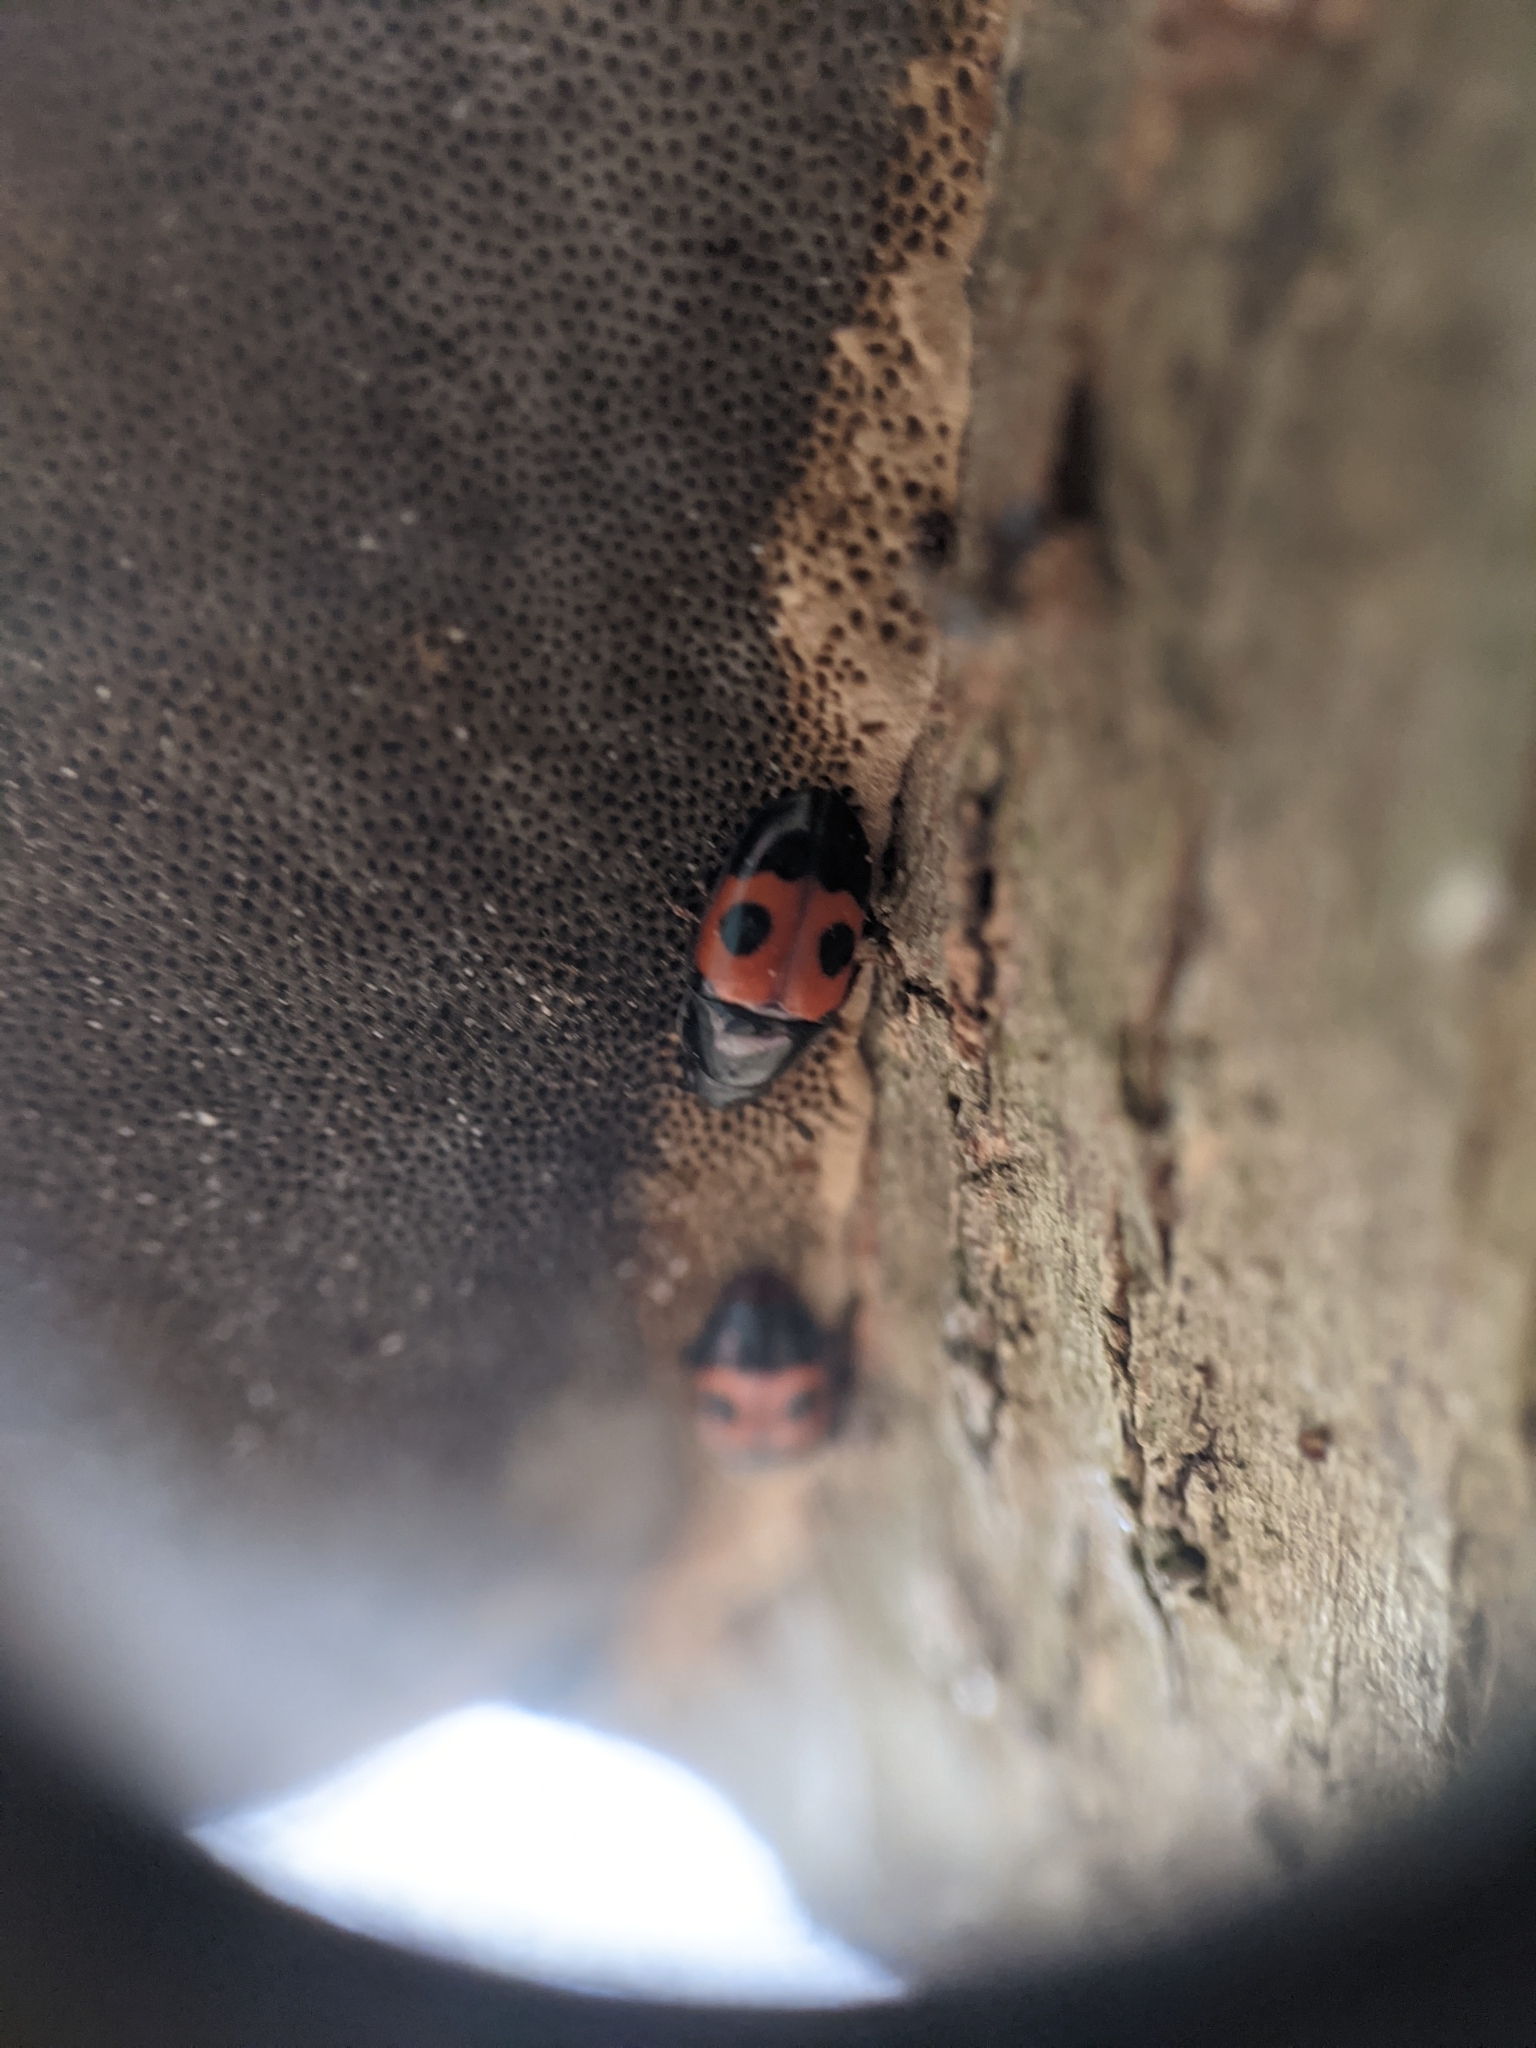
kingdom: Animalia
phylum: Arthropoda
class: Insecta
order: Coleoptera
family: Nitidulidae
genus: Glischrochilus
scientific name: Glischrochilus sanguinolentus
